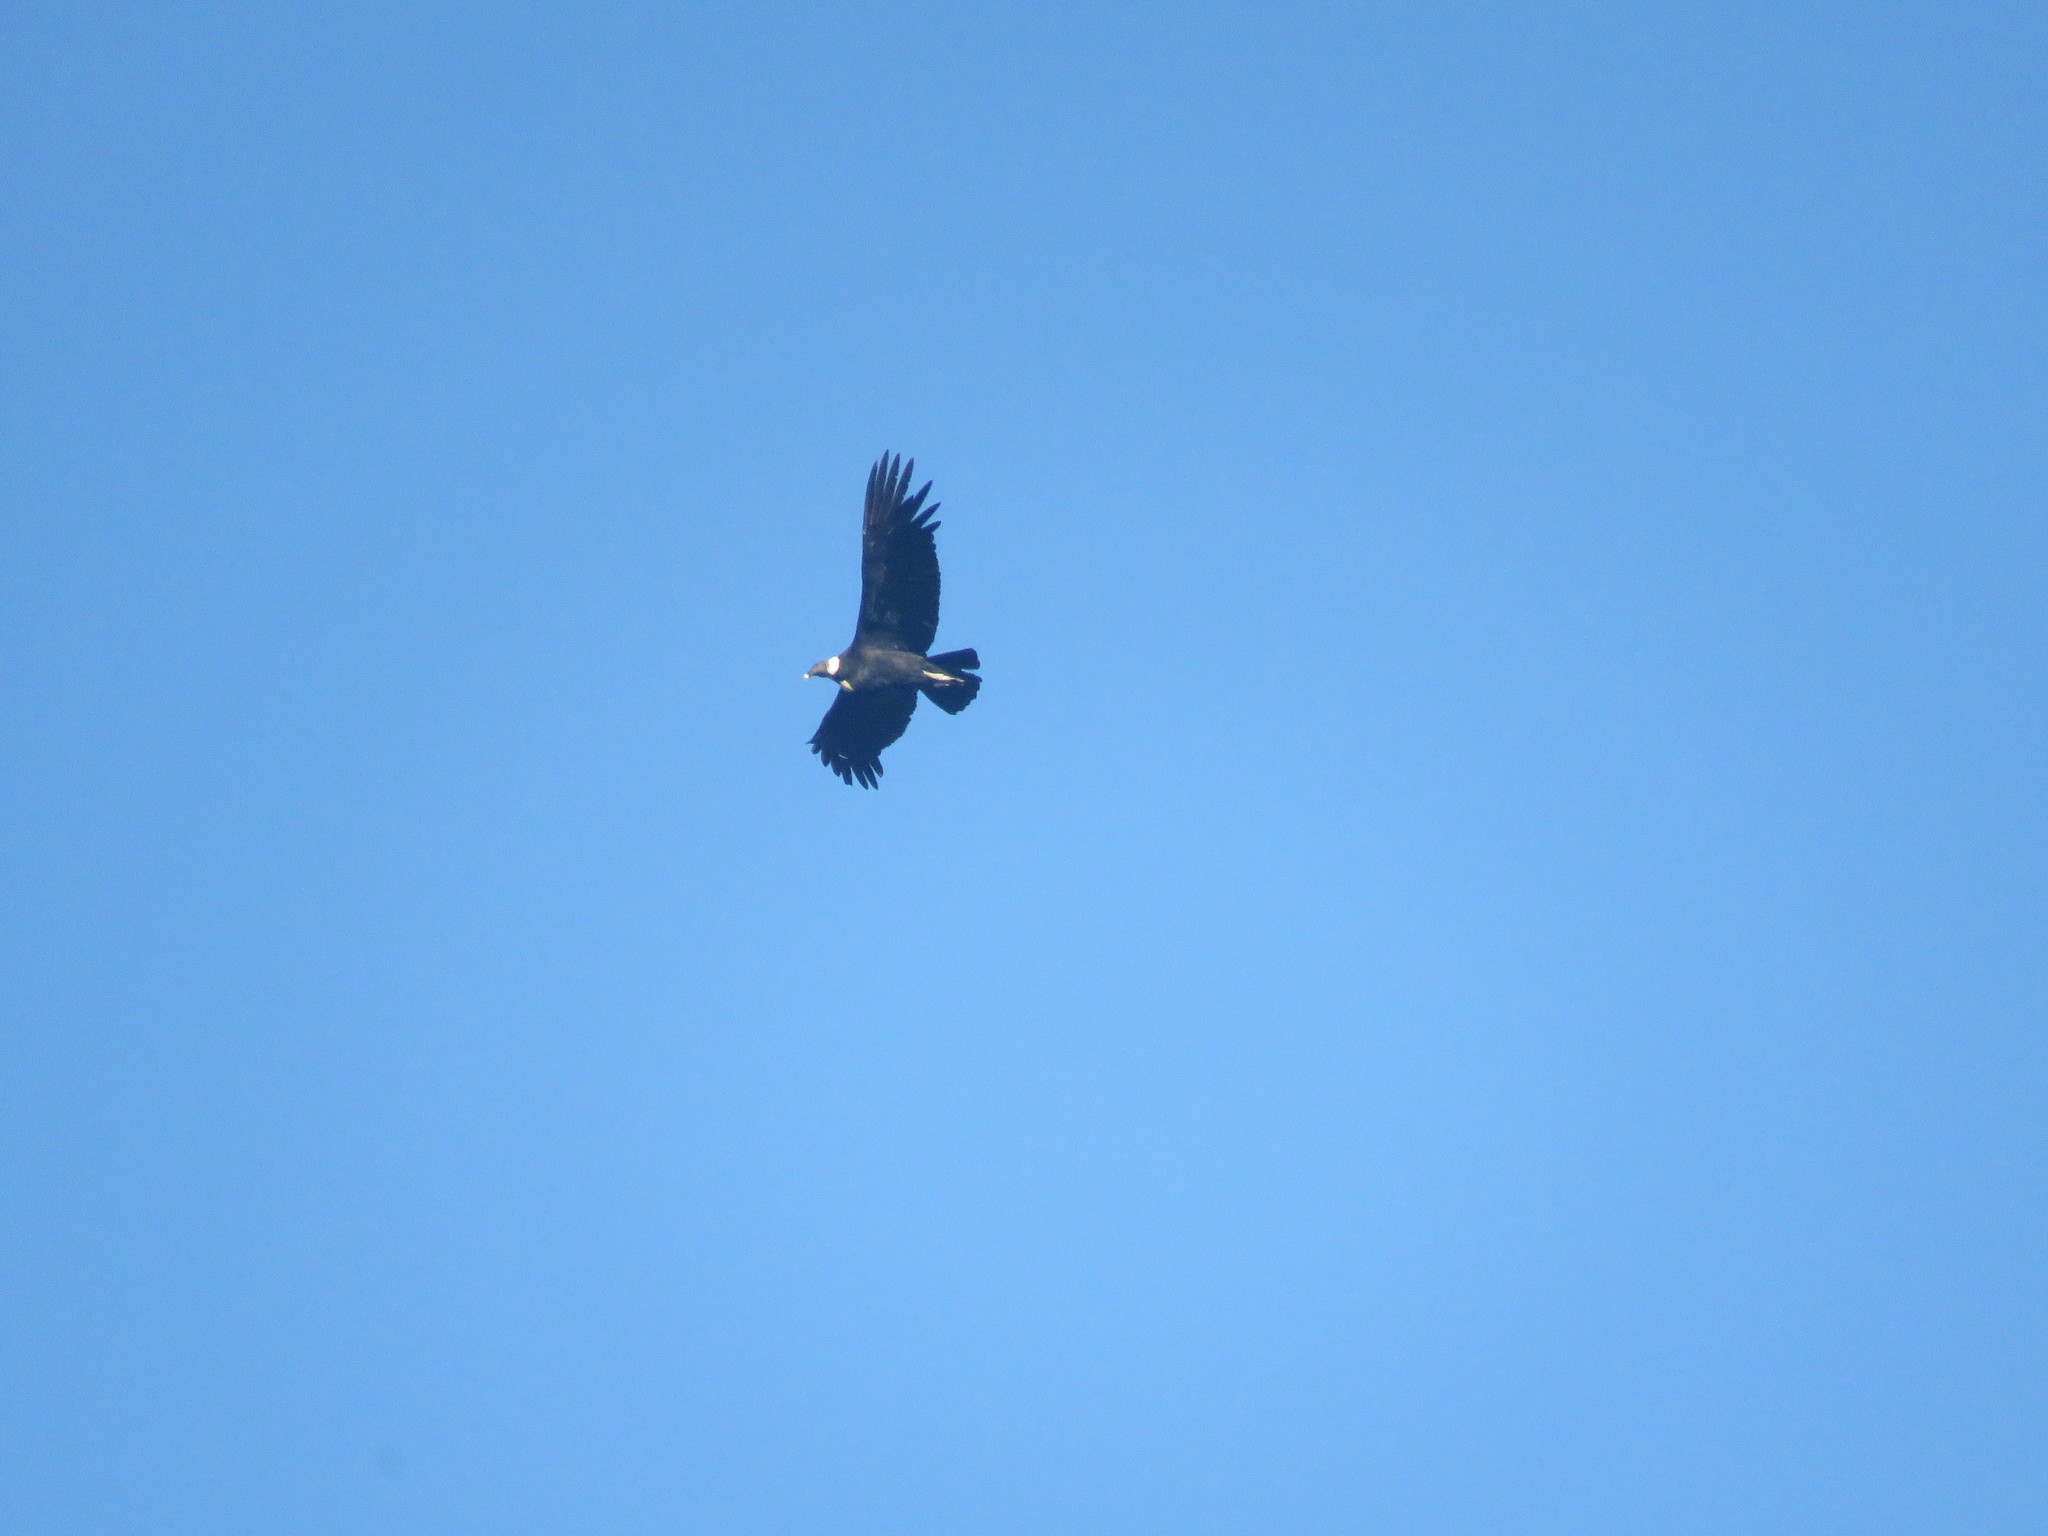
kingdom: Animalia
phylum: Chordata
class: Aves
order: Accipitriformes
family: Cathartidae
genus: Vultur
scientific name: Vultur gryphus
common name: Andean condor
